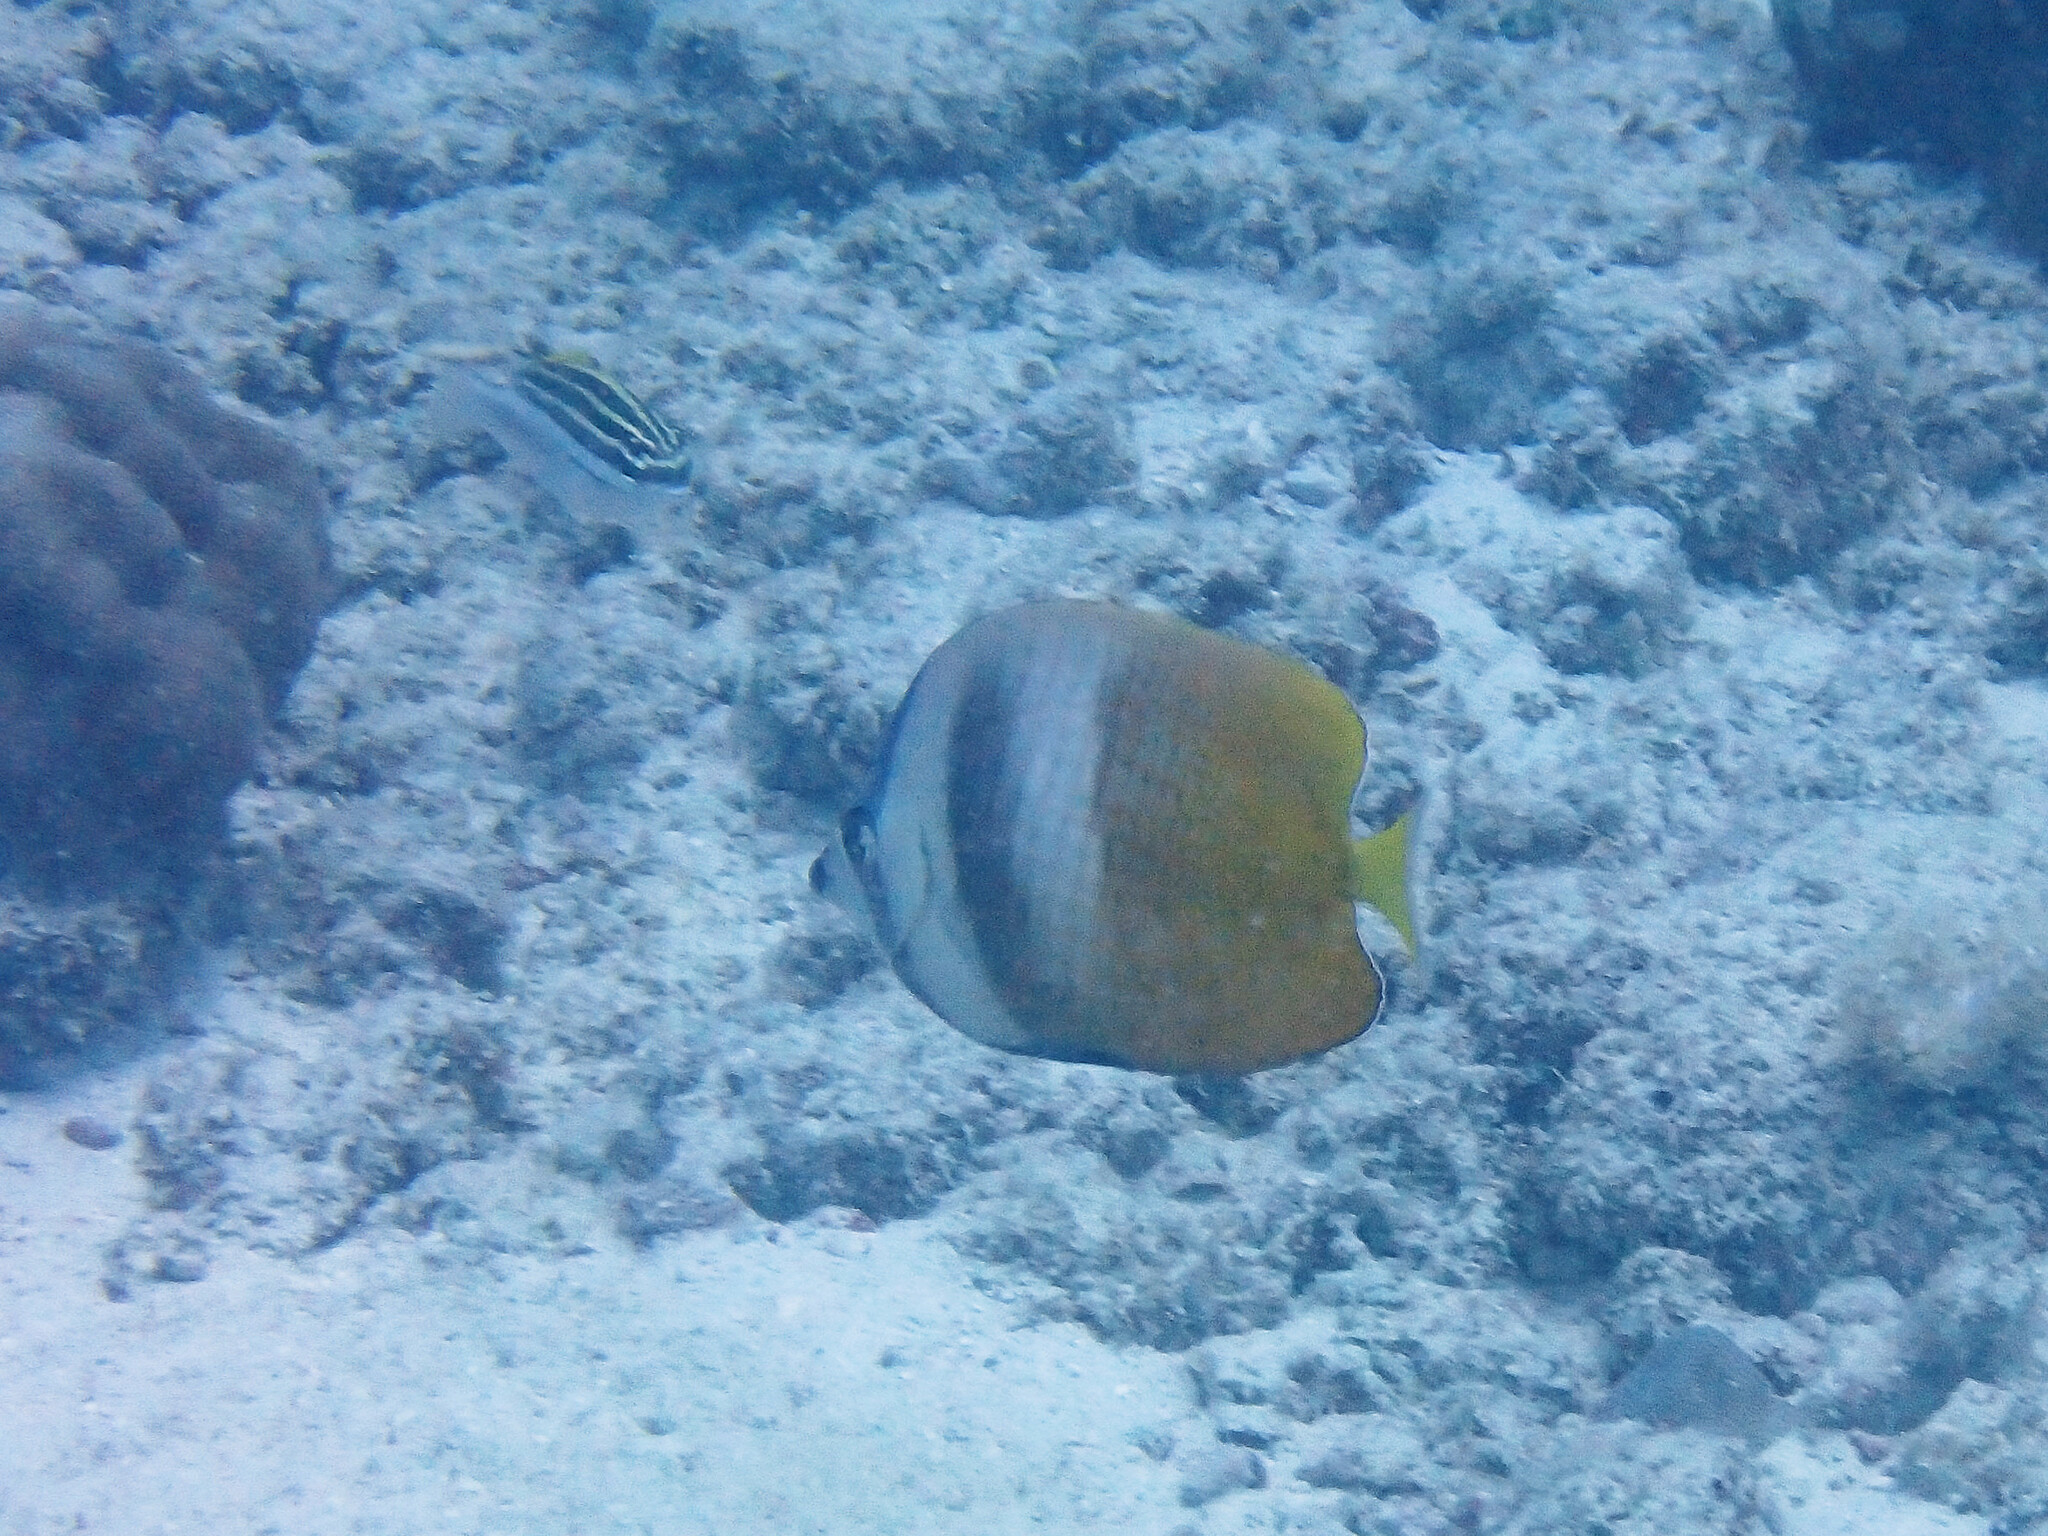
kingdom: Animalia
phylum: Chordata
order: Perciformes
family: Chaetodontidae
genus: Chaetodon
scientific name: Chaetodon kleinii
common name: Klein's butterflyfish
